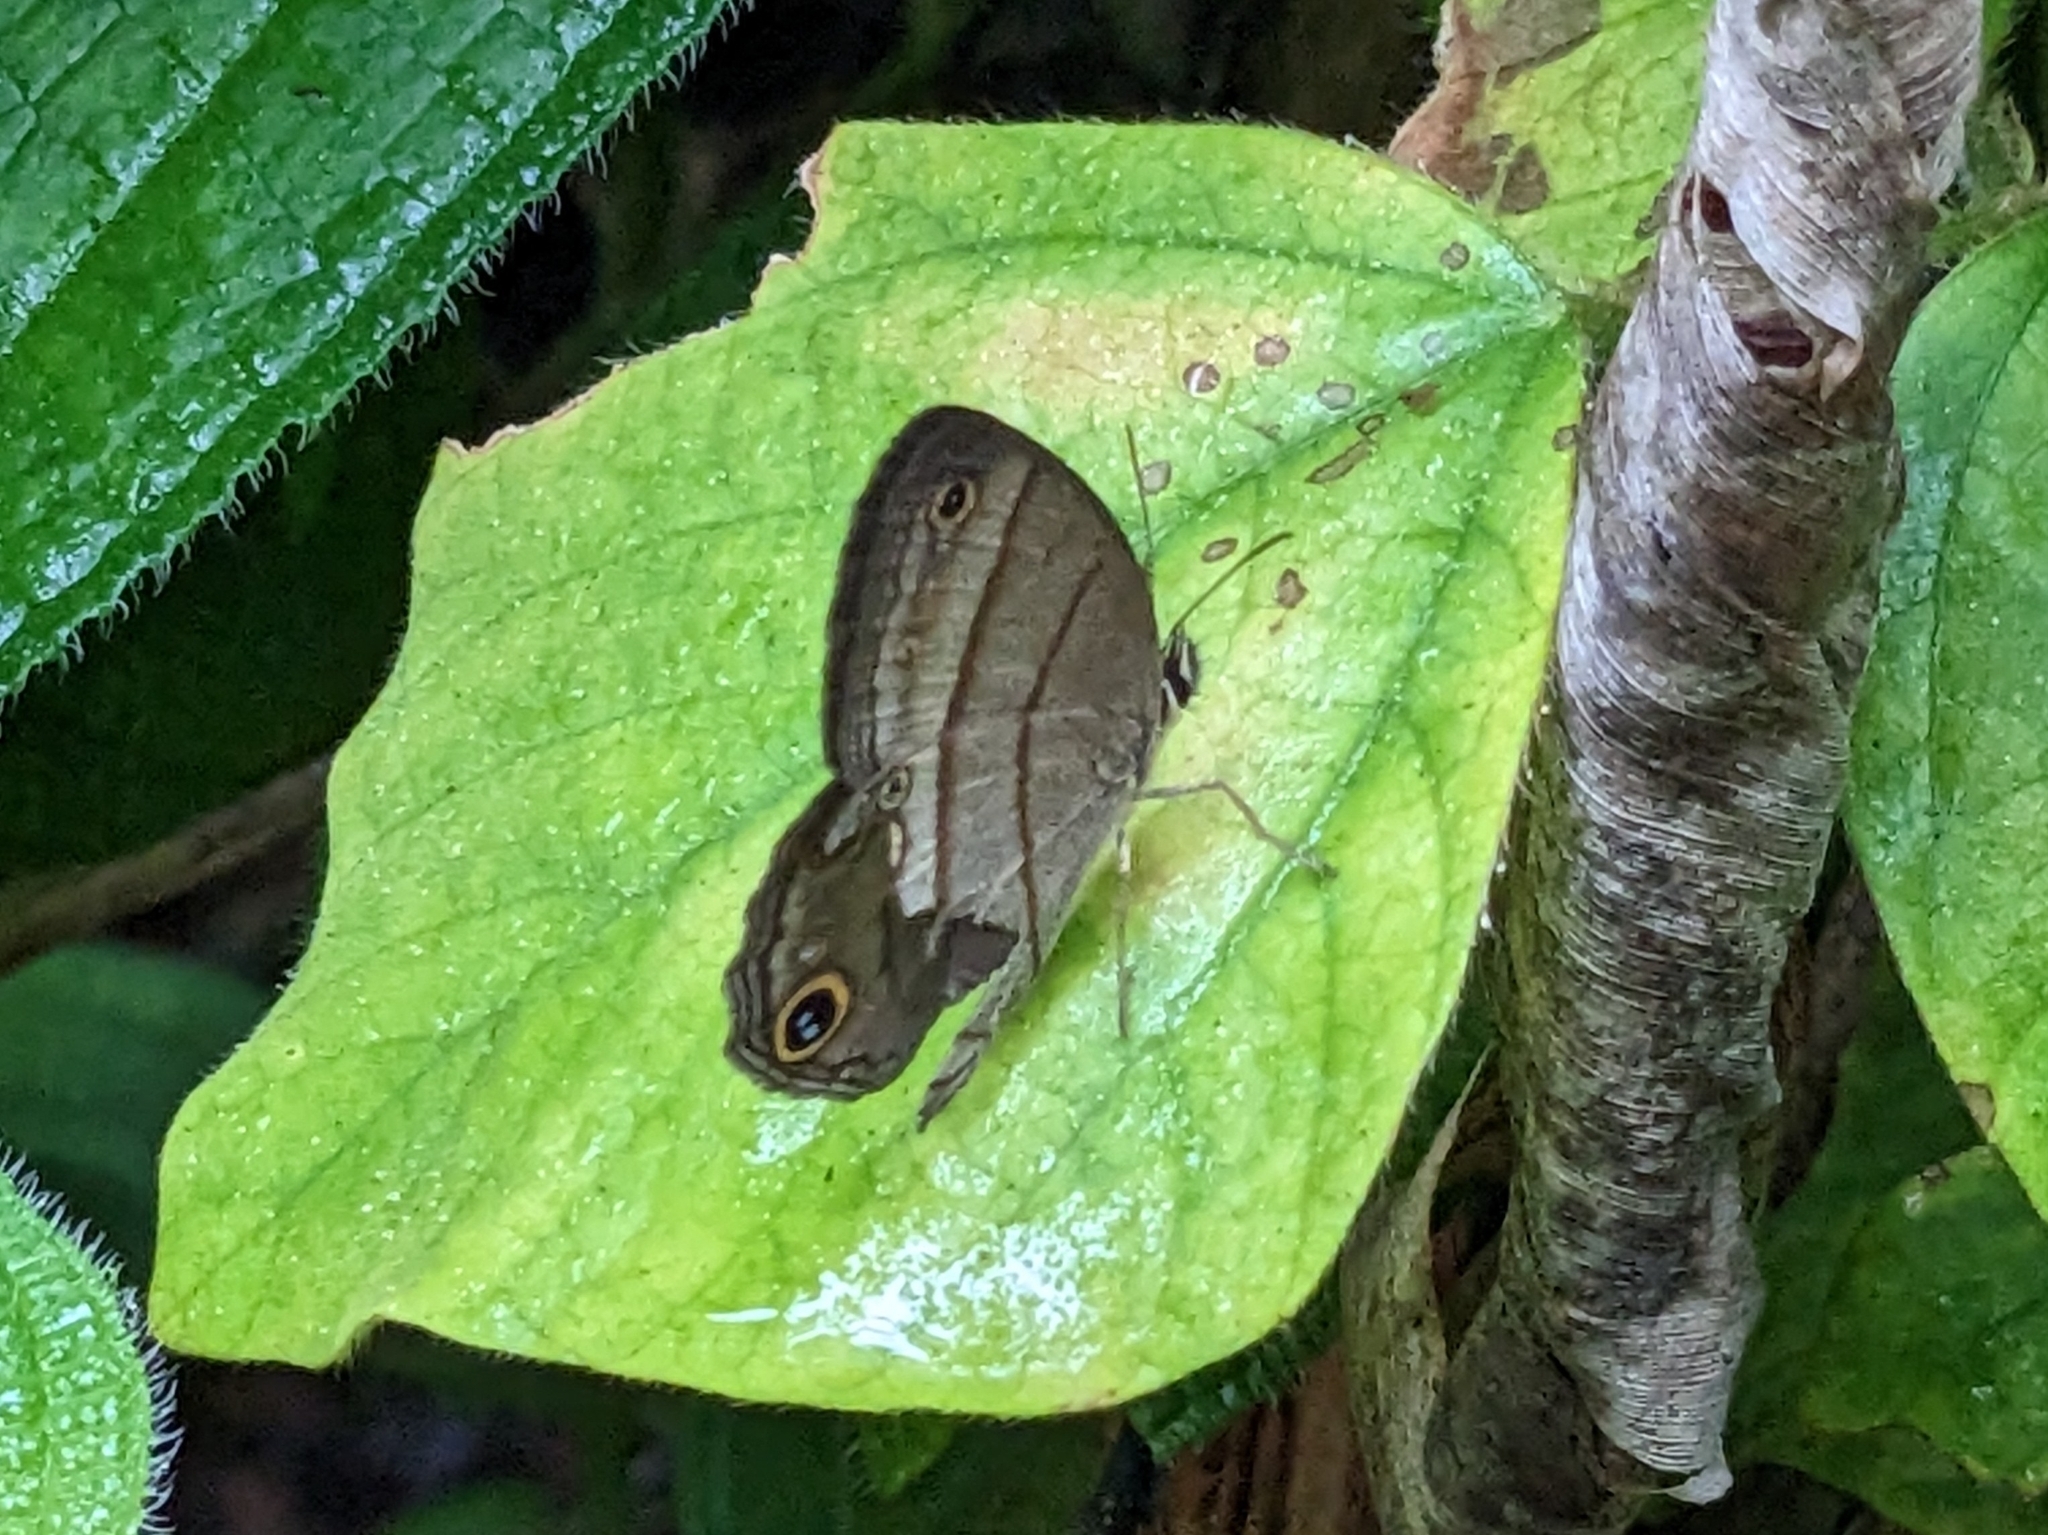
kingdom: Animalia
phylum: Arthropoda
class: Insecta
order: Lepidoptera
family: Nymphalidae
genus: Euptychia
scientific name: Euptychia Cissia pompilia
